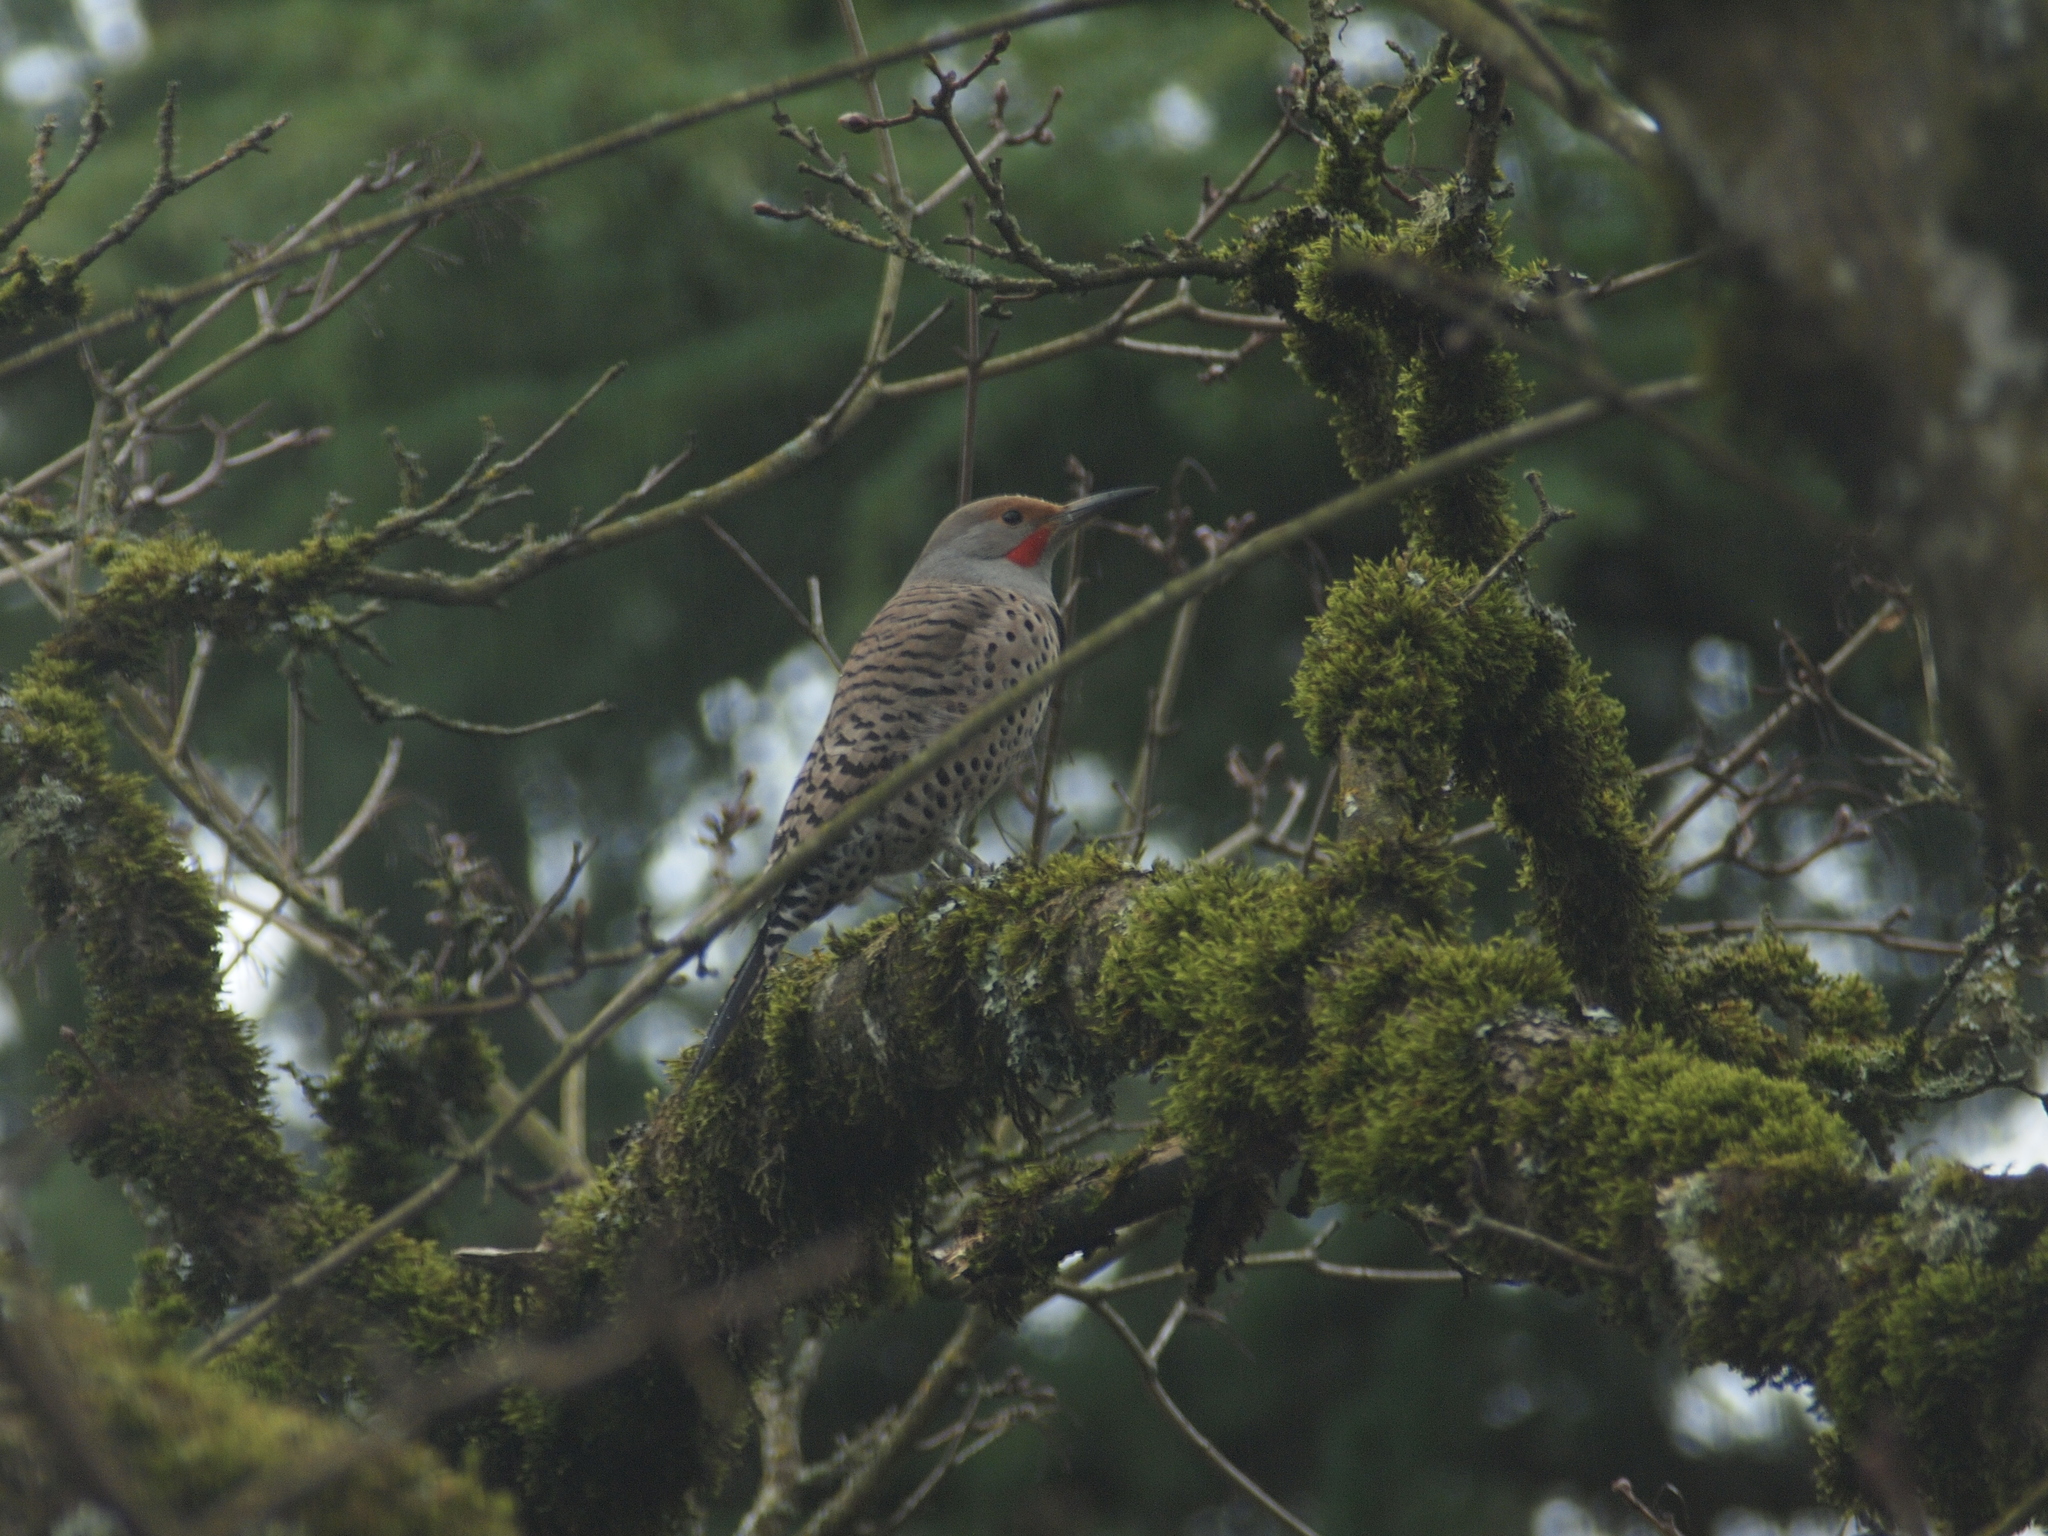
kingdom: Animalia
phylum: Chordata
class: Aves
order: Piciformes
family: Picidae
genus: Colaptes
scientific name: Colaptes auratus
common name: Northern flicker
